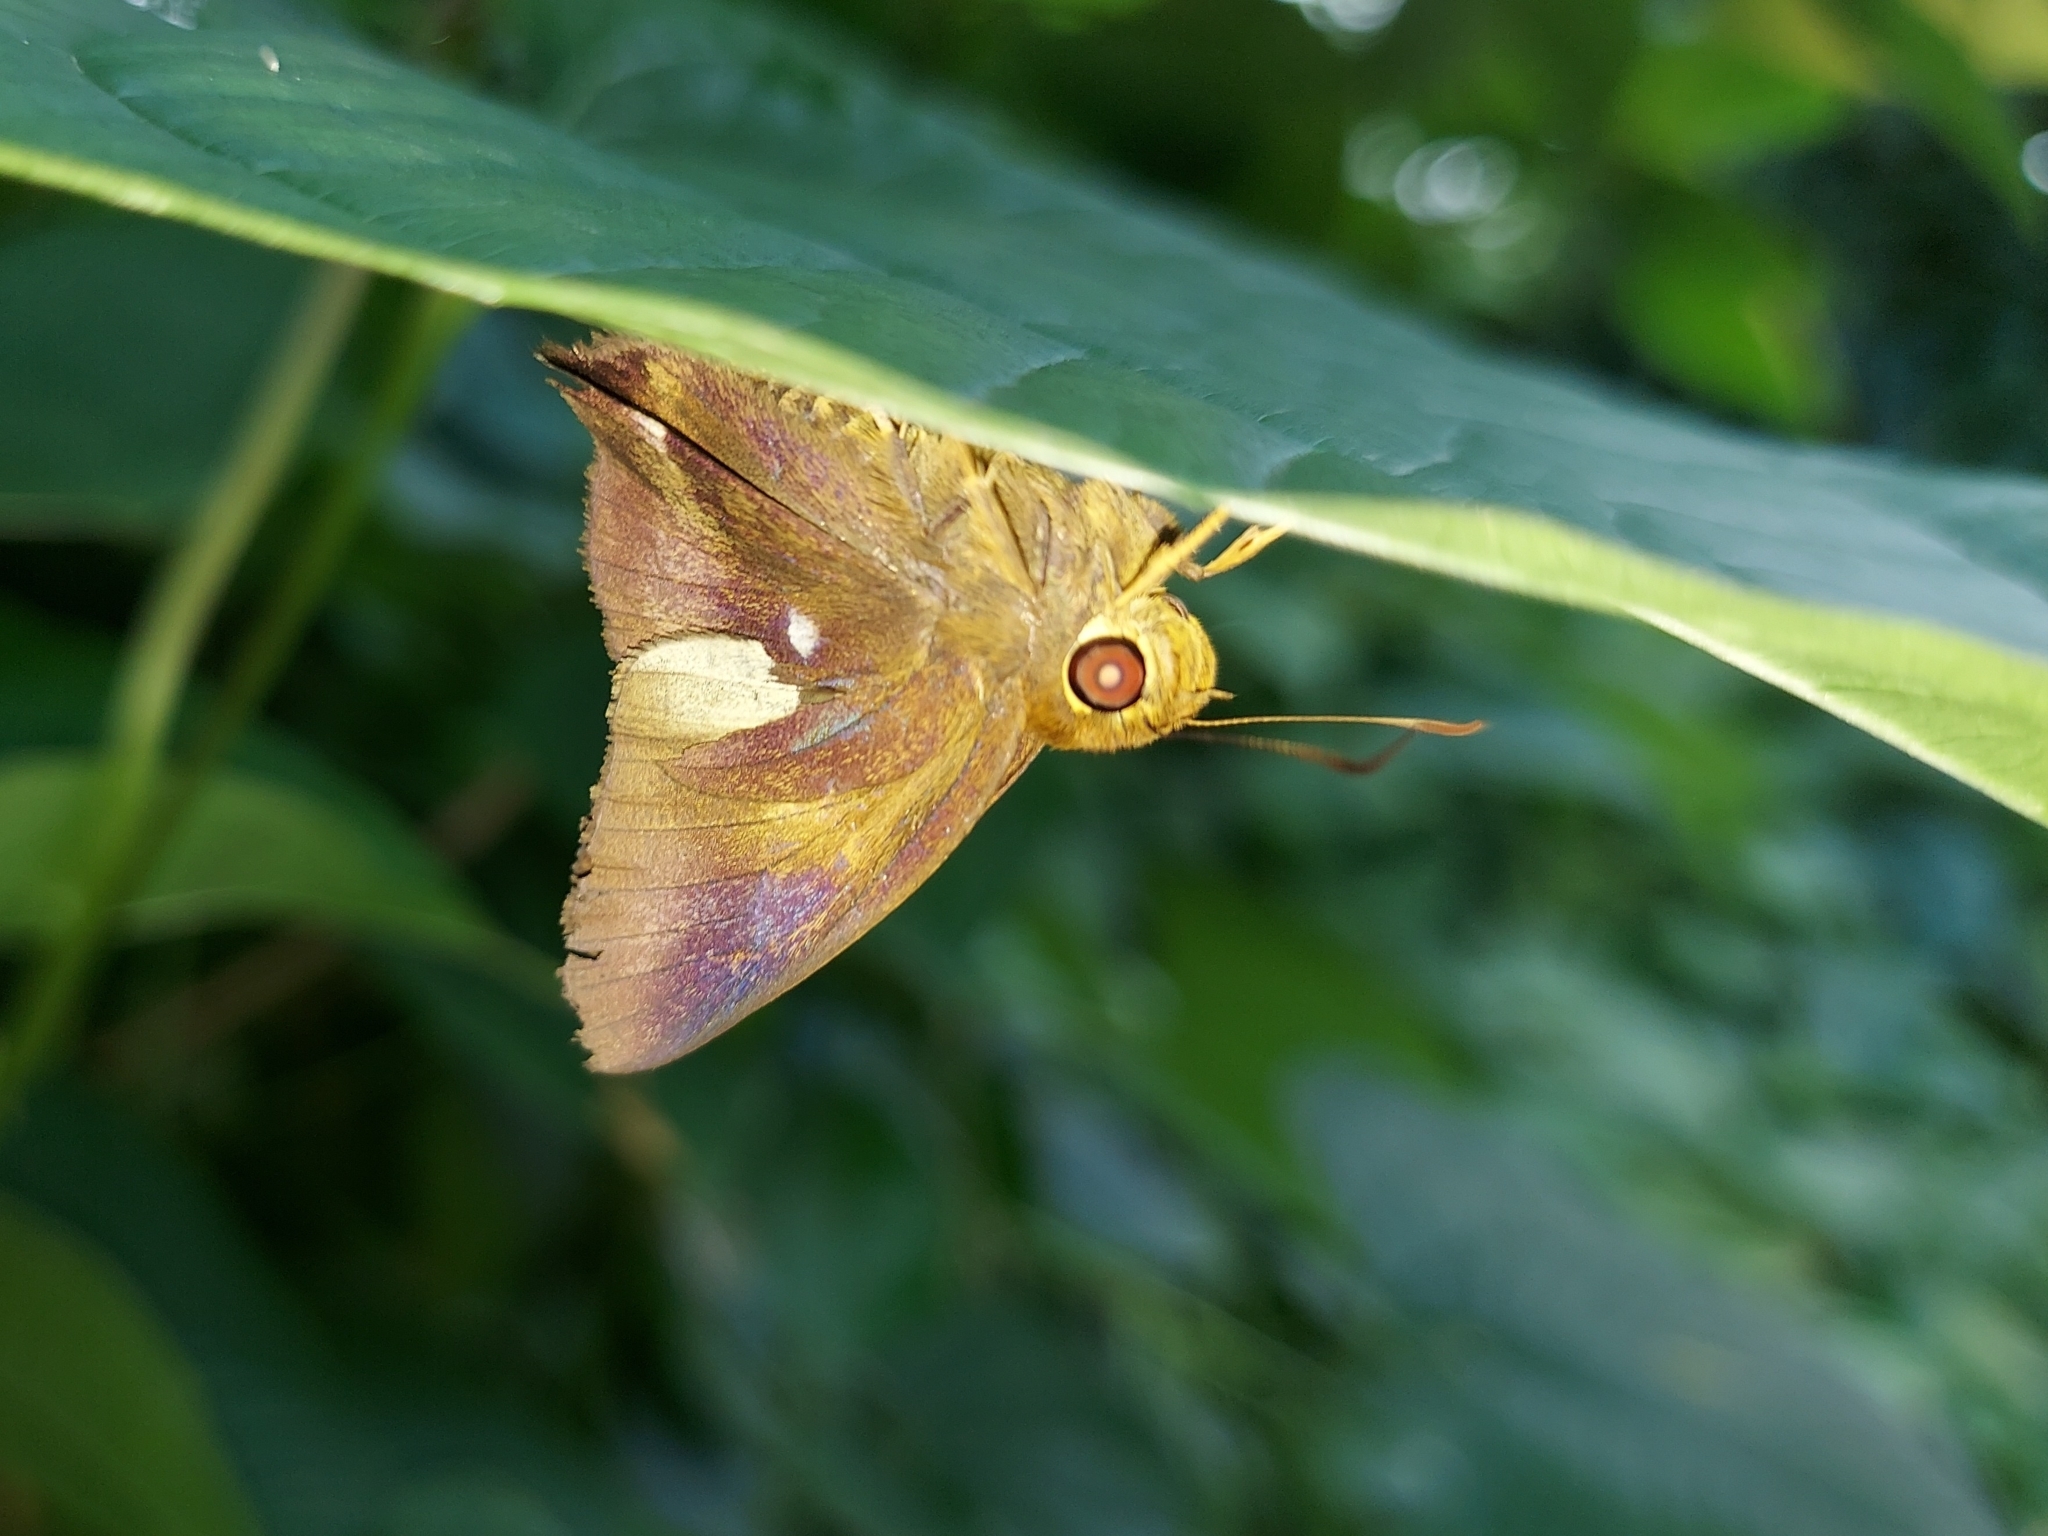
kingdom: Animalia
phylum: Arthropoda
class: Insecta
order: Lepidoptera
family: Hesperiidae
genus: Hasora
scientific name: Hasora badra
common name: Common awl
